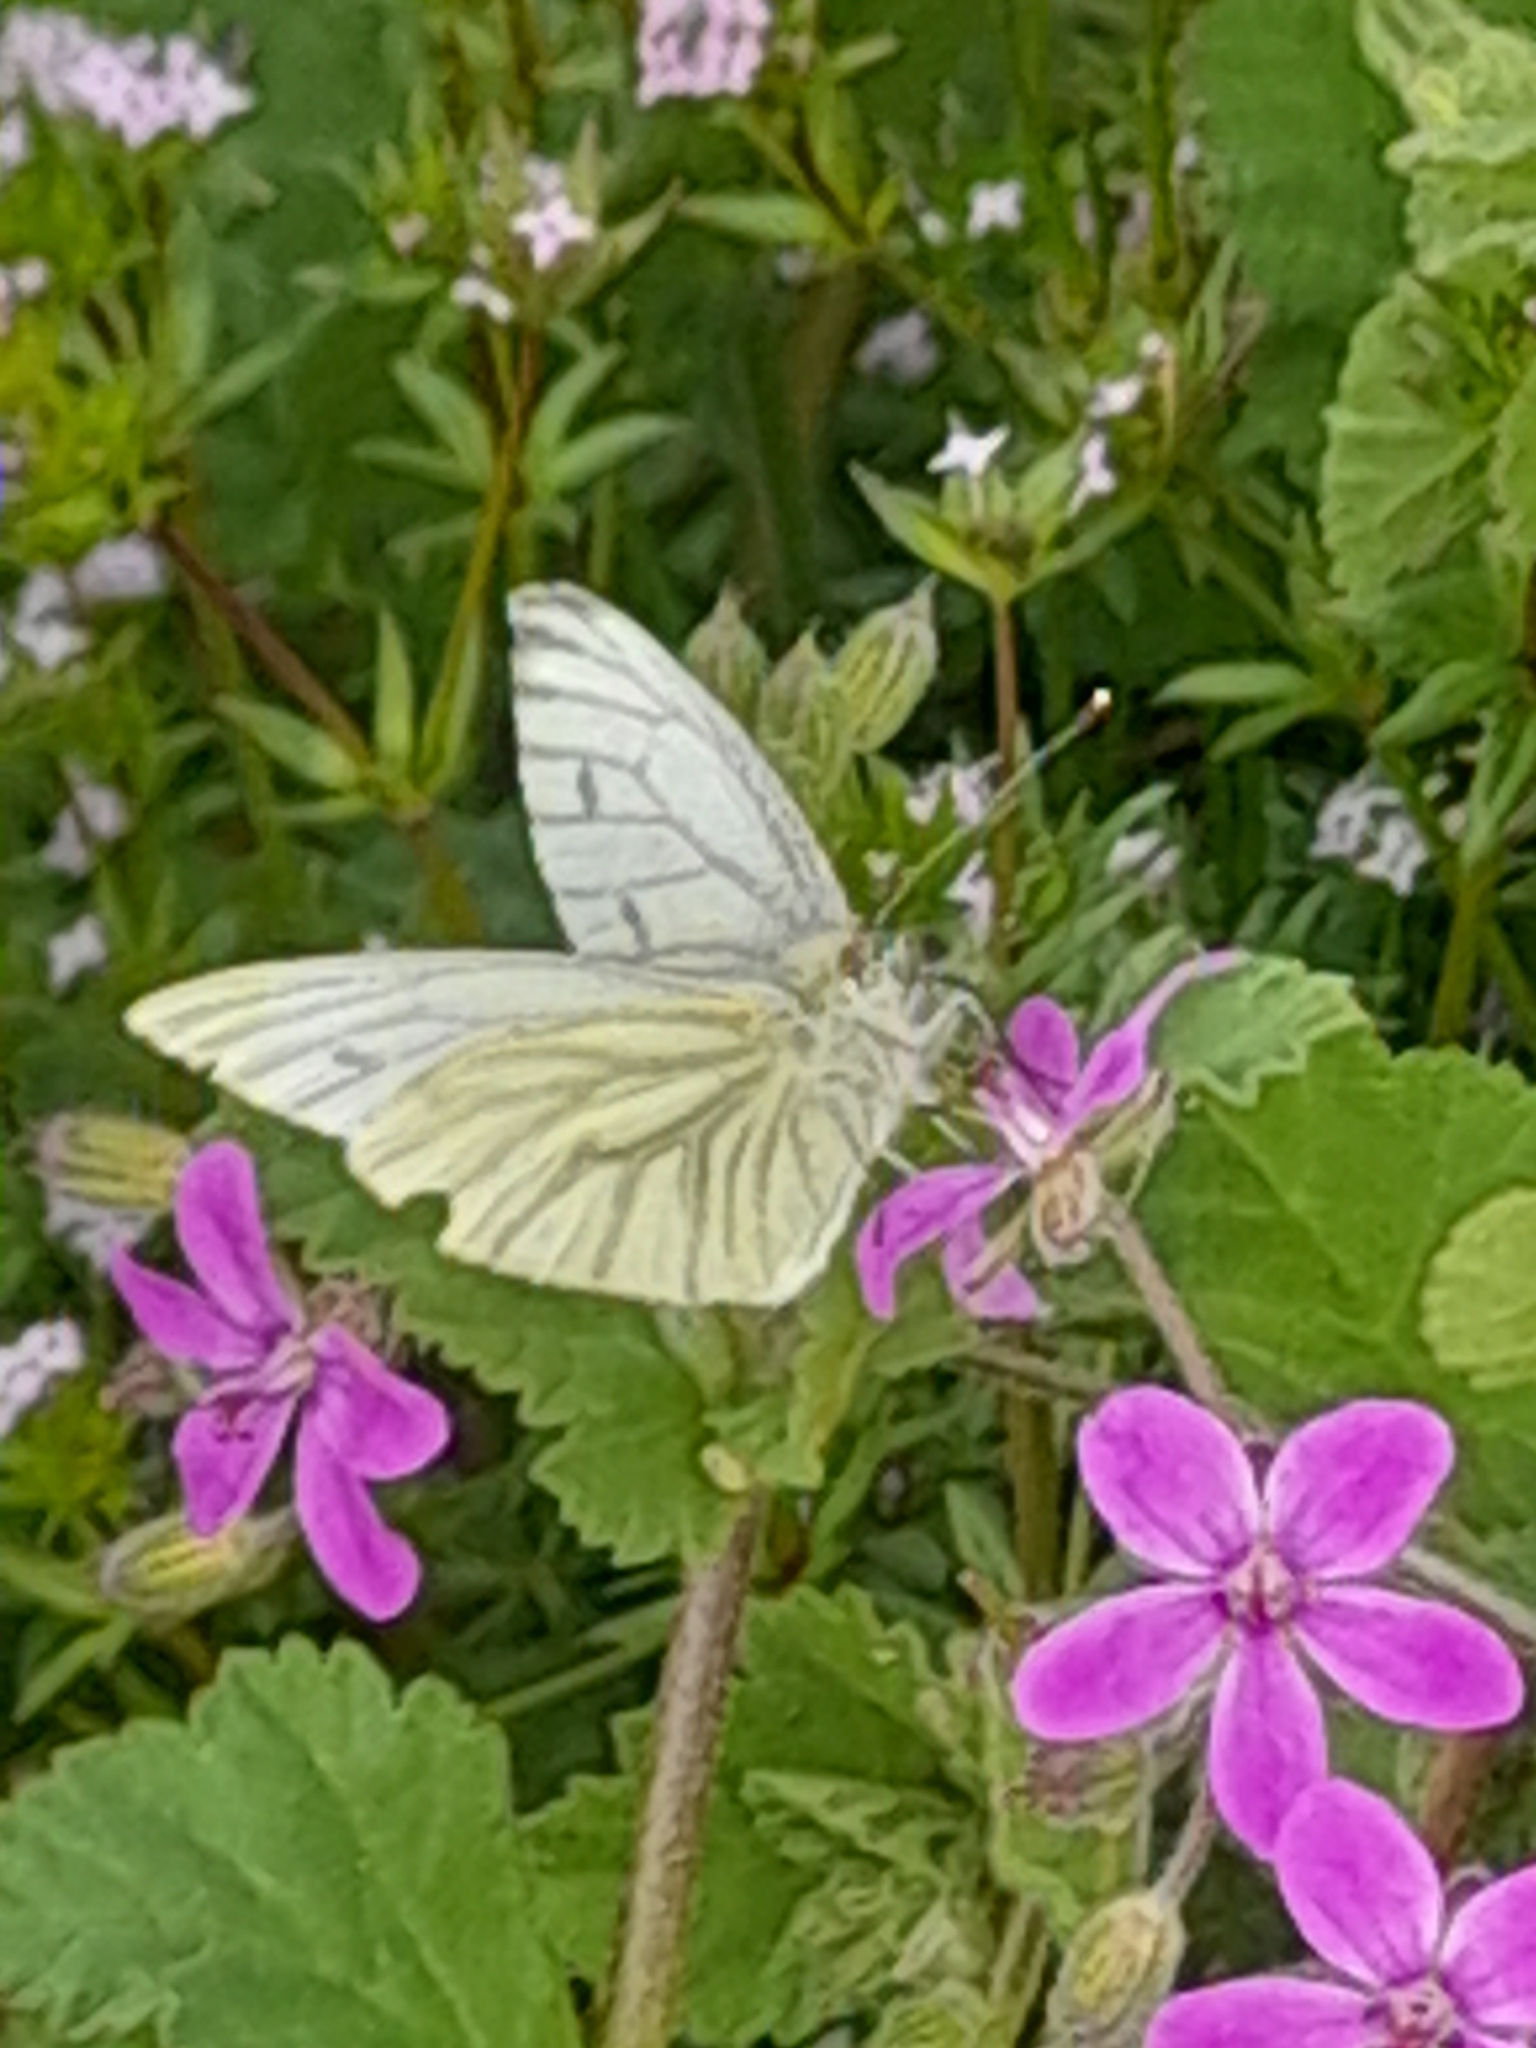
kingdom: Animalia
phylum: Arthropoda
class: Insecta
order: Lepidoptera
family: Pieridae
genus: Pieris
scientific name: Pieris napi
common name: Green-veined white
